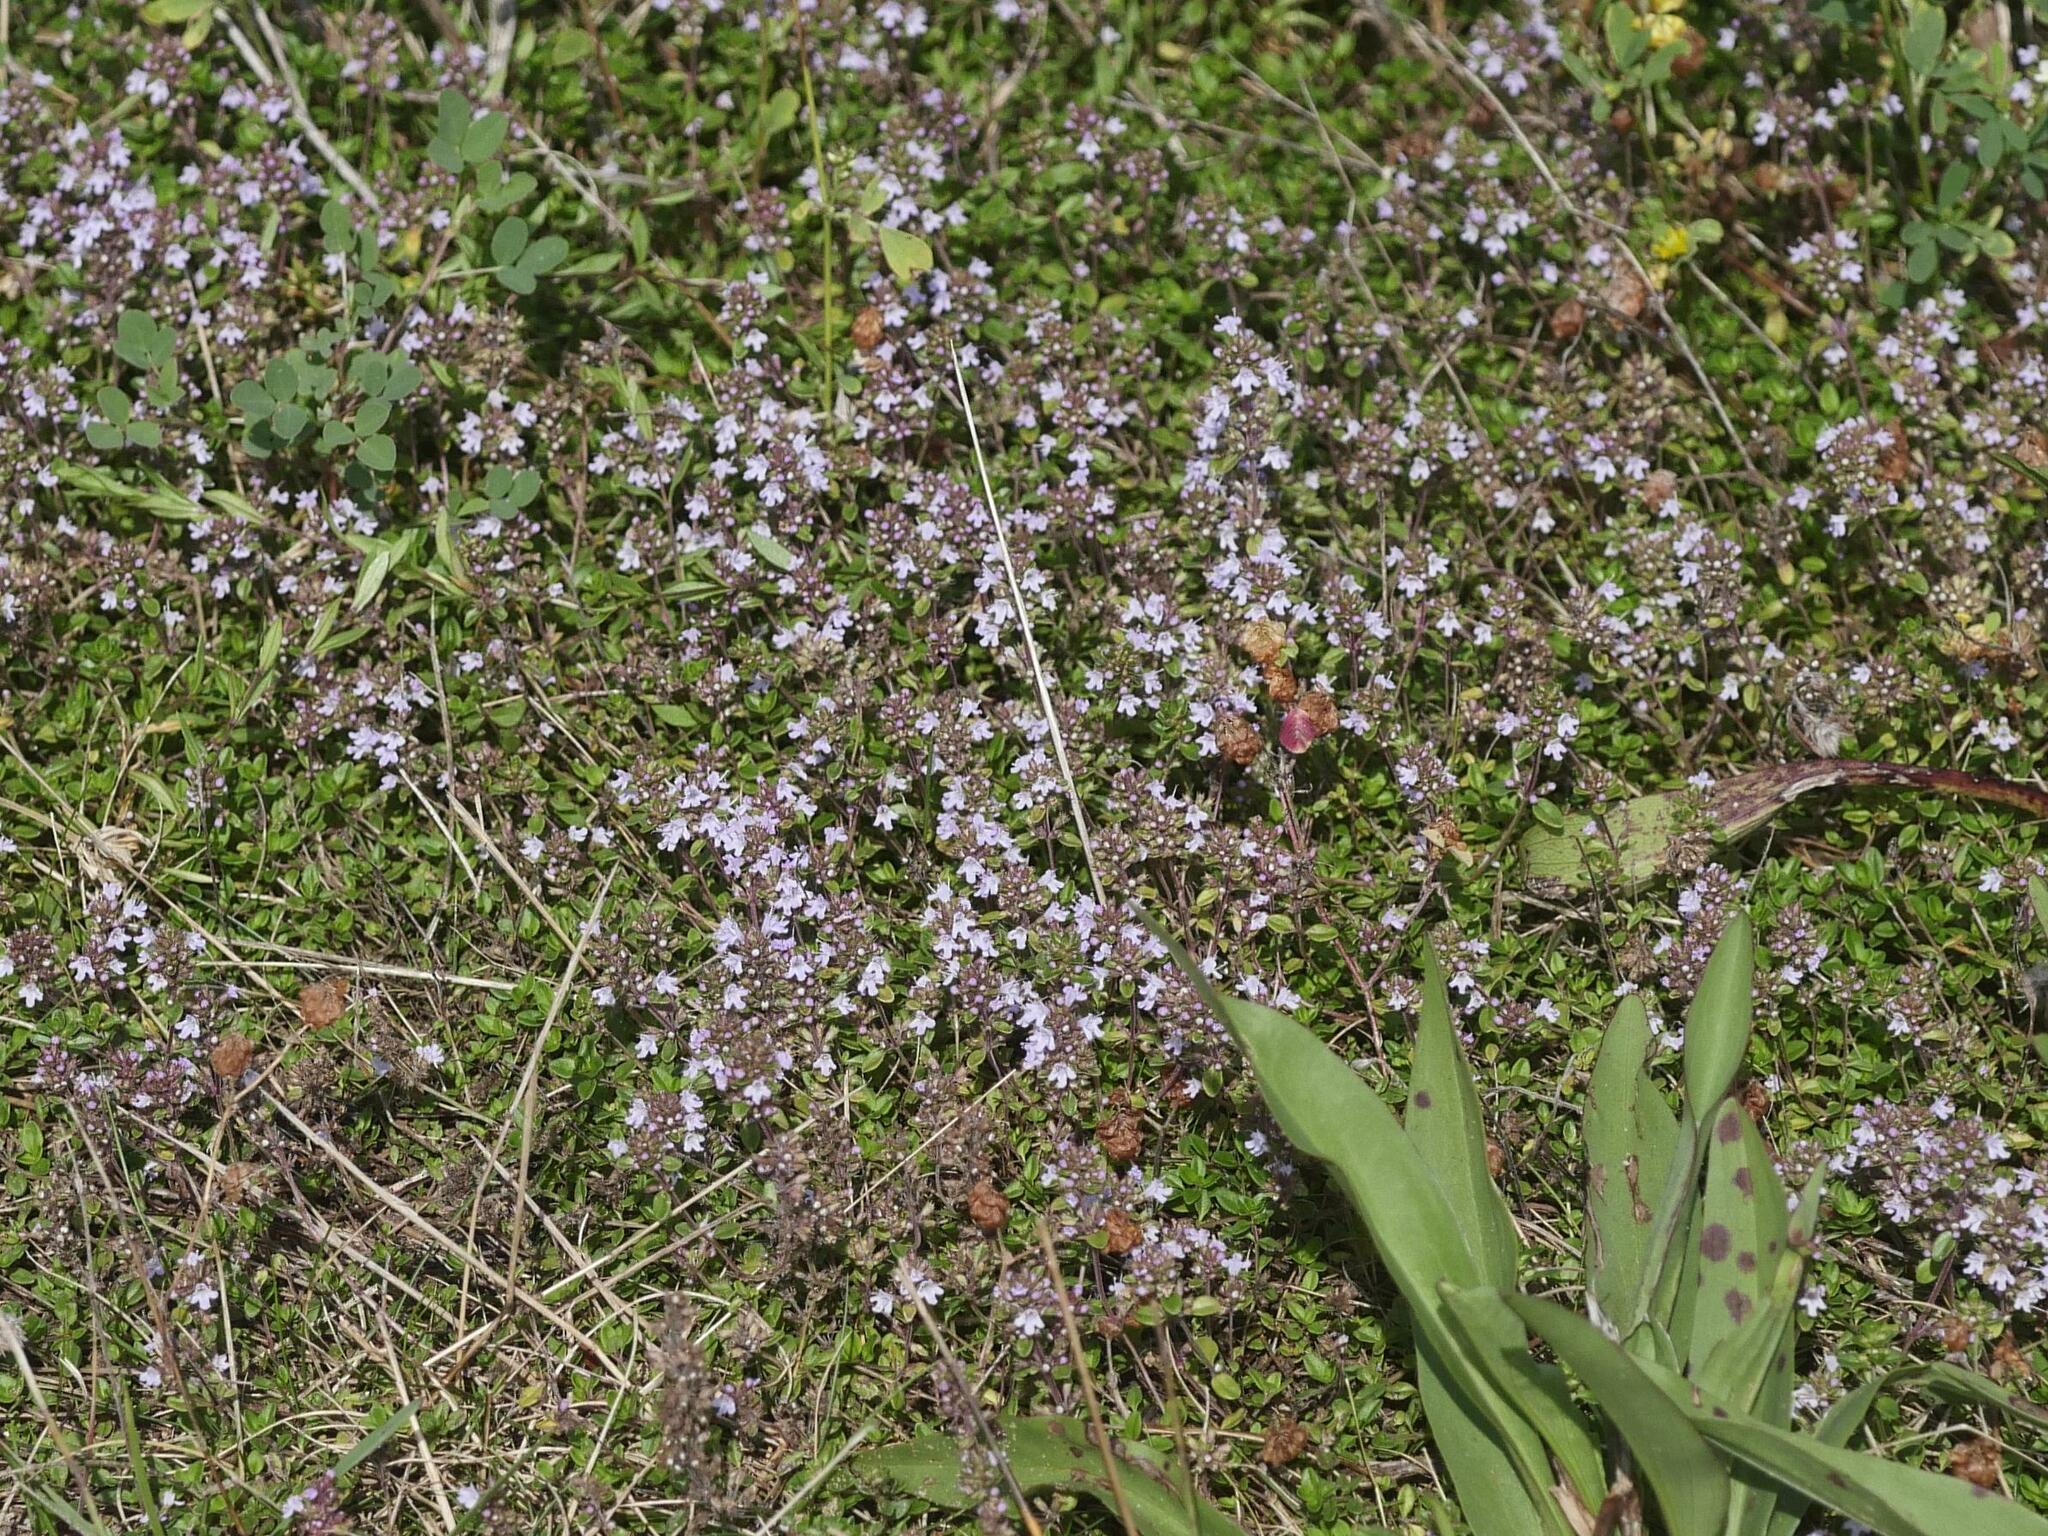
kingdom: Plantae
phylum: Tracheophyta
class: Magnoliopsida
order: Lamiales
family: Lamiaceae
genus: Thymus
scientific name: Thymus pulegioides
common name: Large thyme
